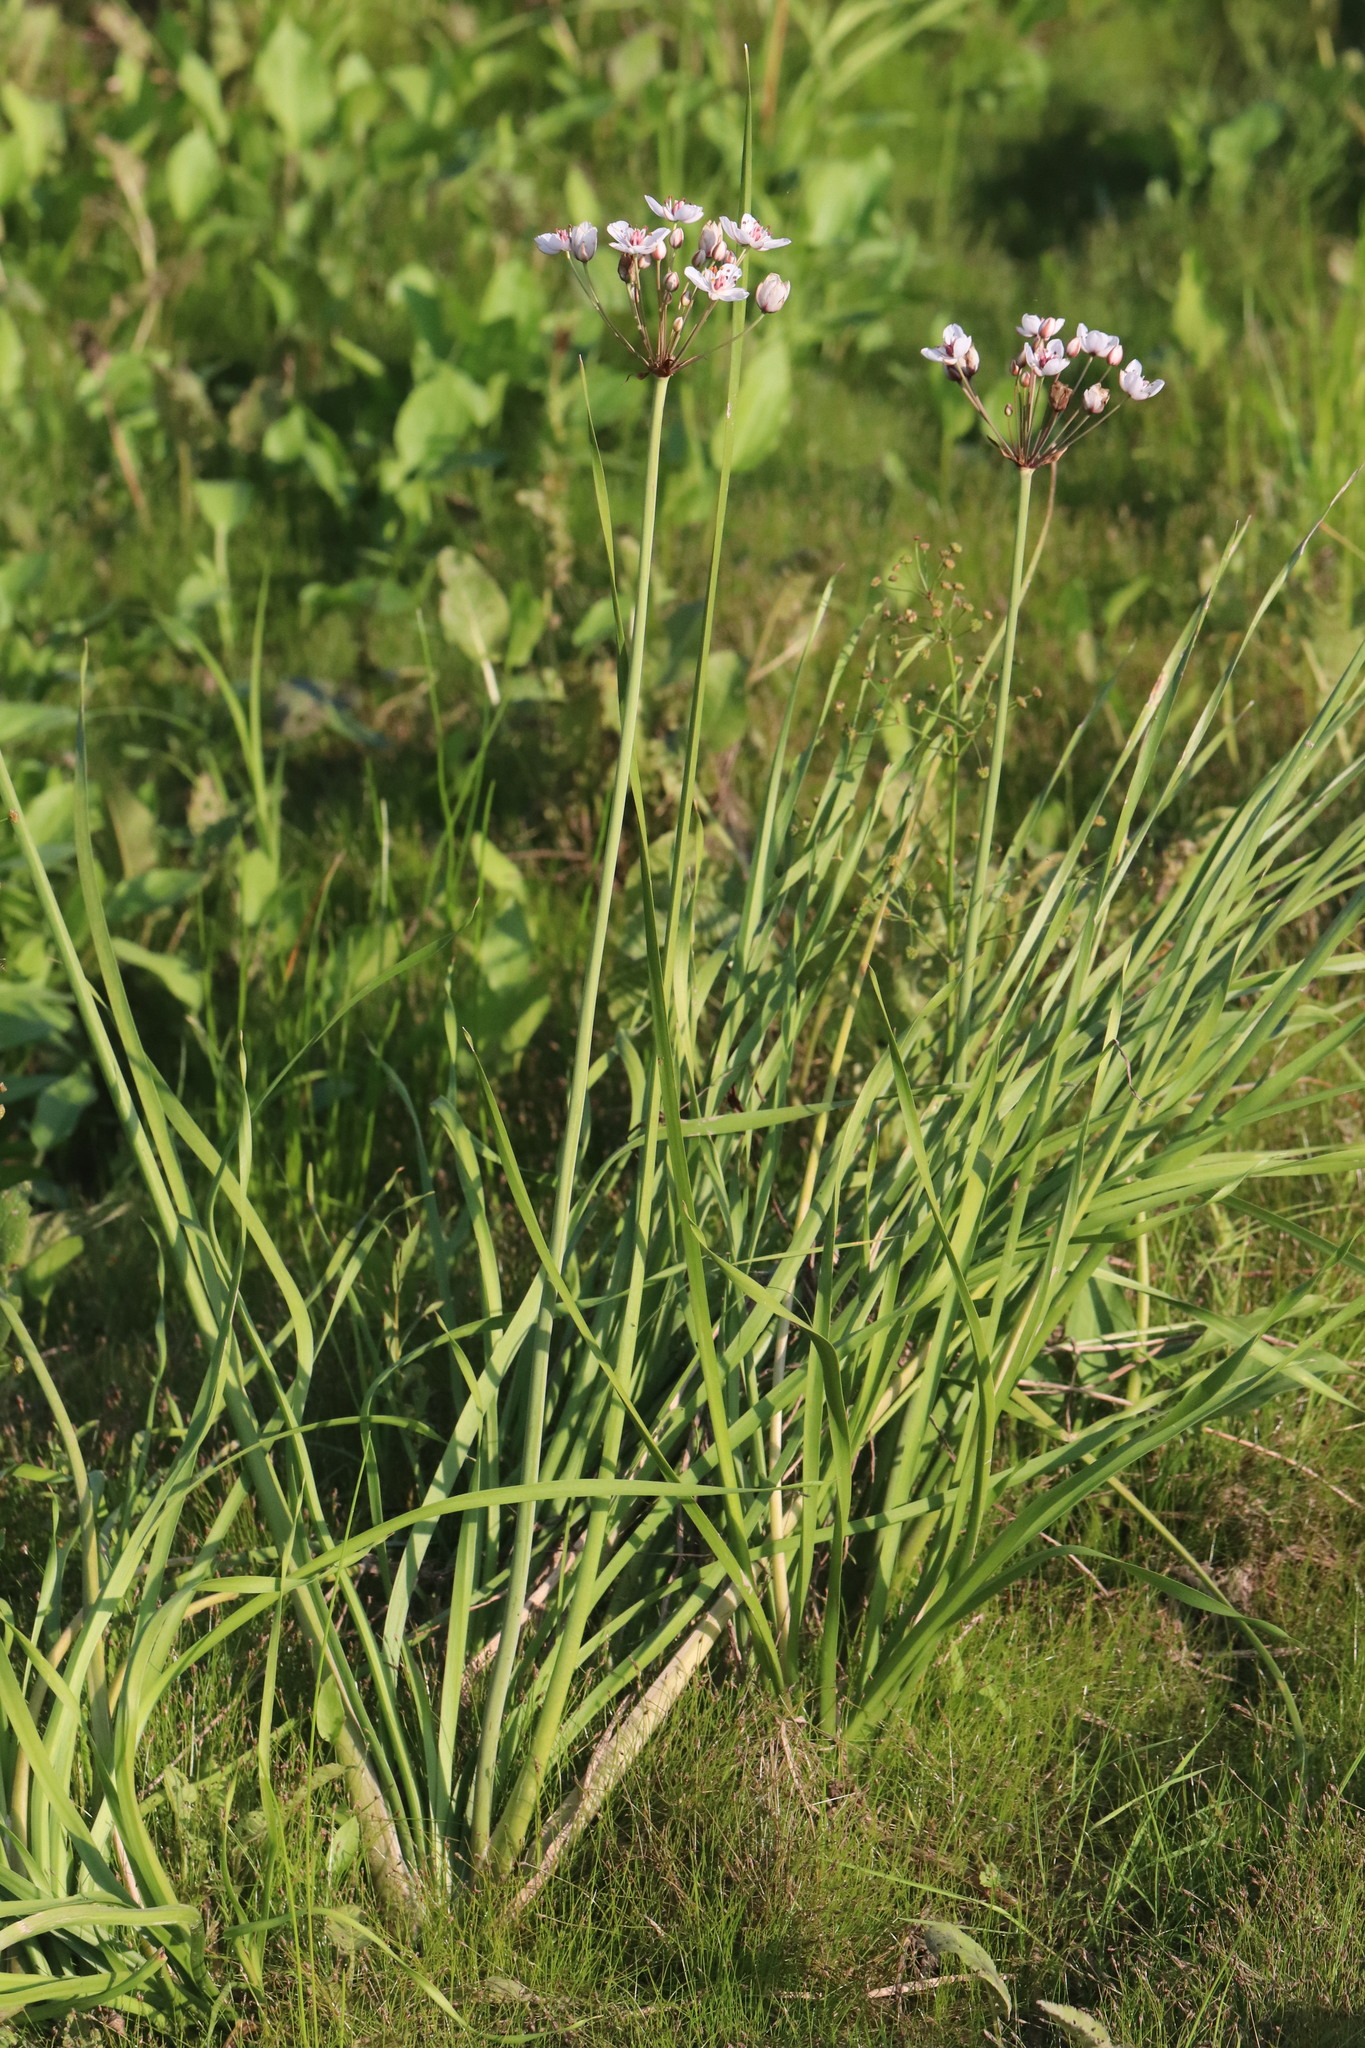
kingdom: Plantae
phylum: Tracheophyta
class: Liliopsida
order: Alismatales
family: Butomaceae
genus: Butomus
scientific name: Butomus umbellatus
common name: Flowering-rush
